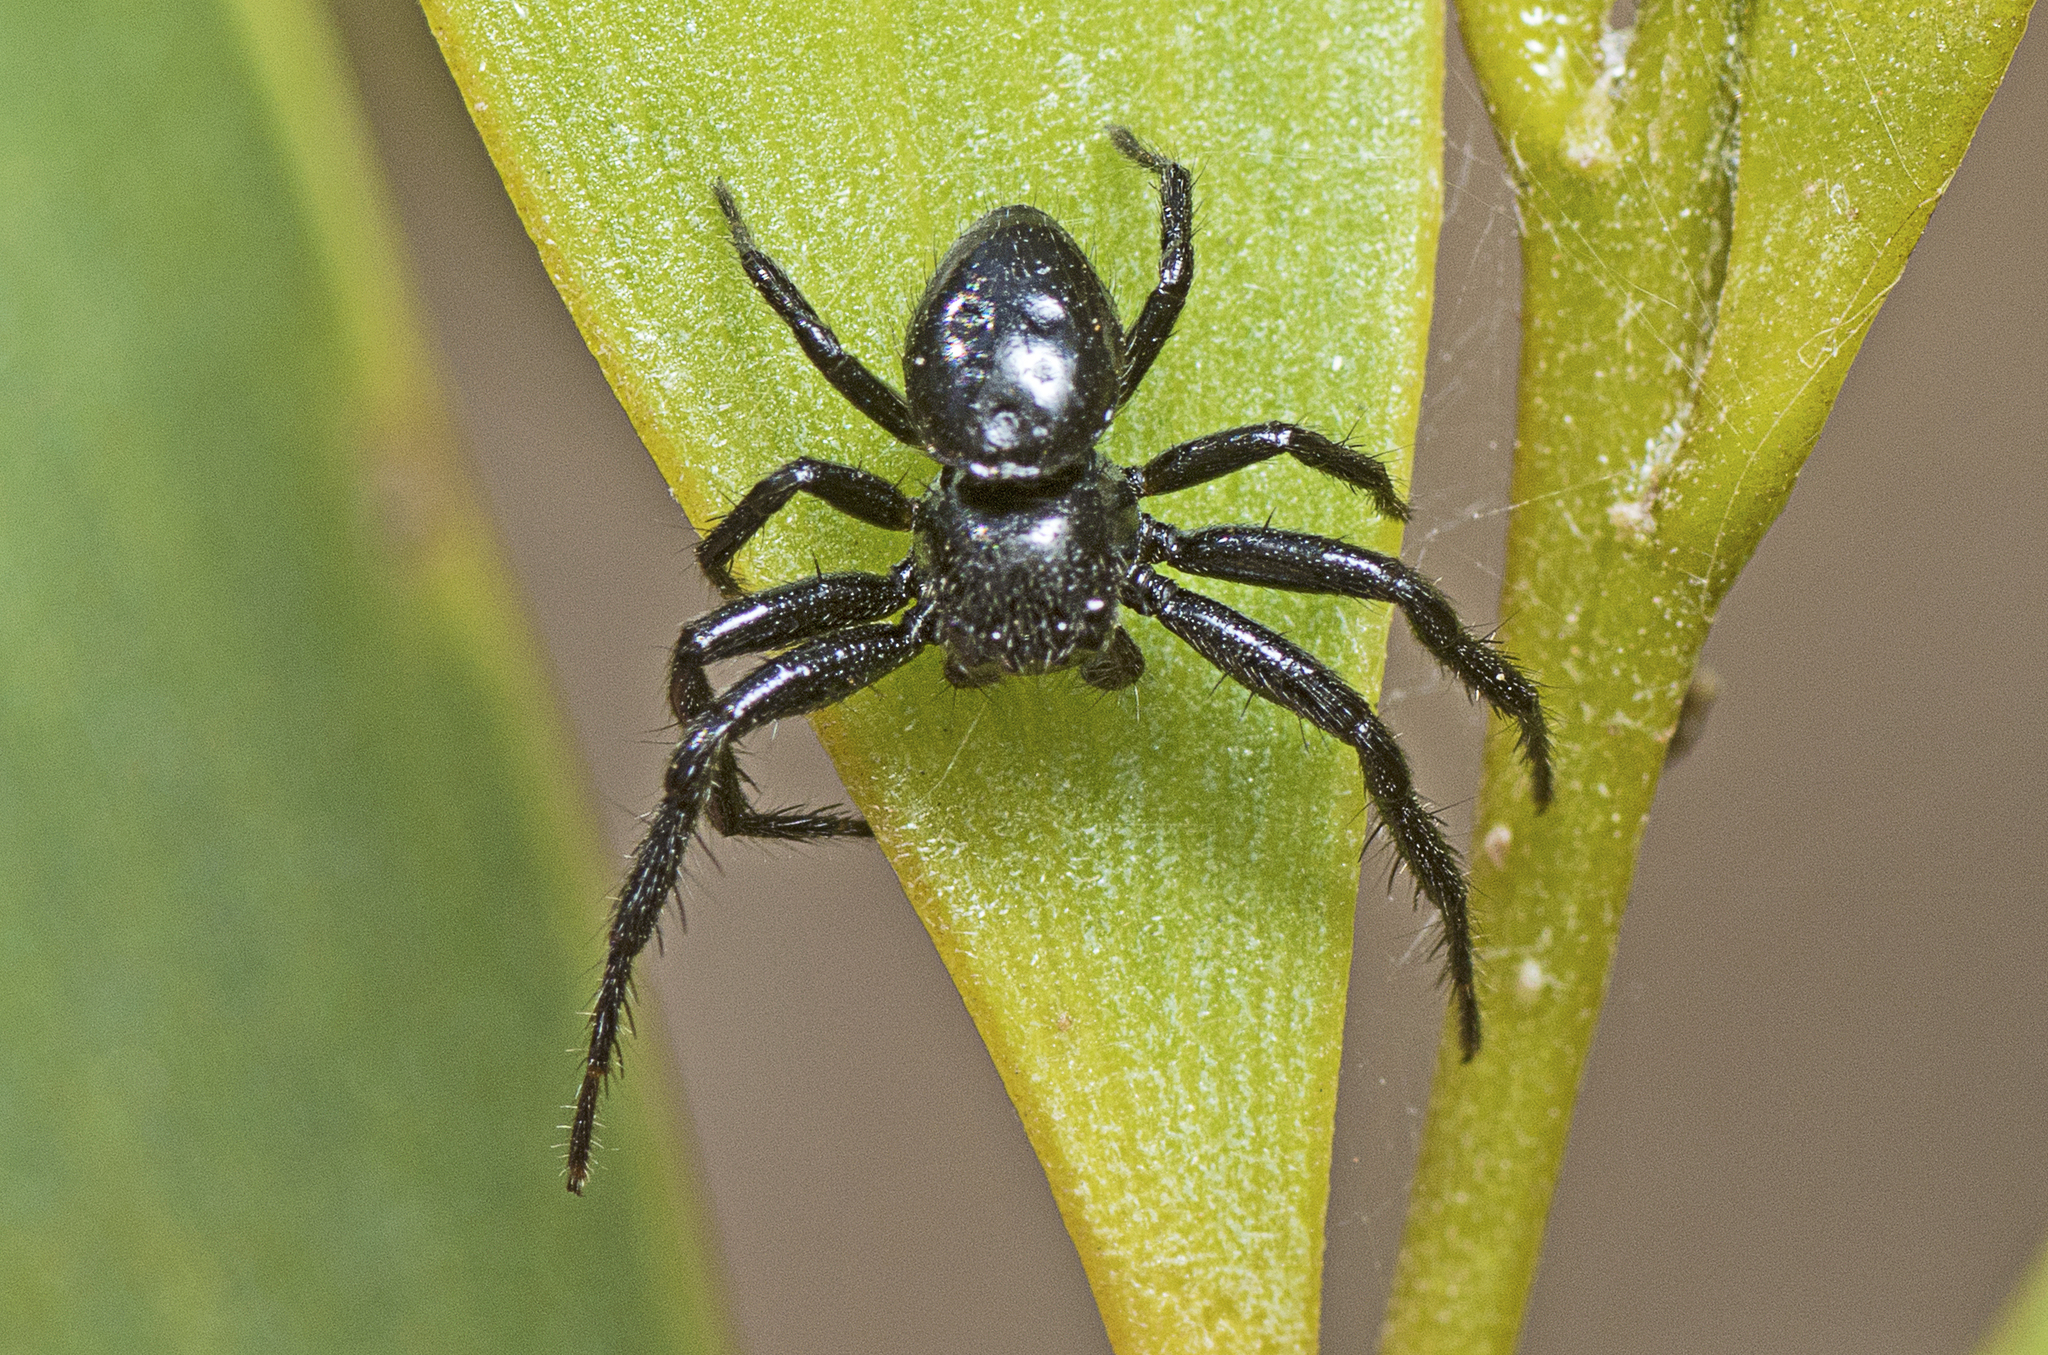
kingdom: Animalia
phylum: Arthropoda
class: Arachnida
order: Araneae
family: Thomisidae
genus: Xysticus
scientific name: Xysticus bimaculatus
